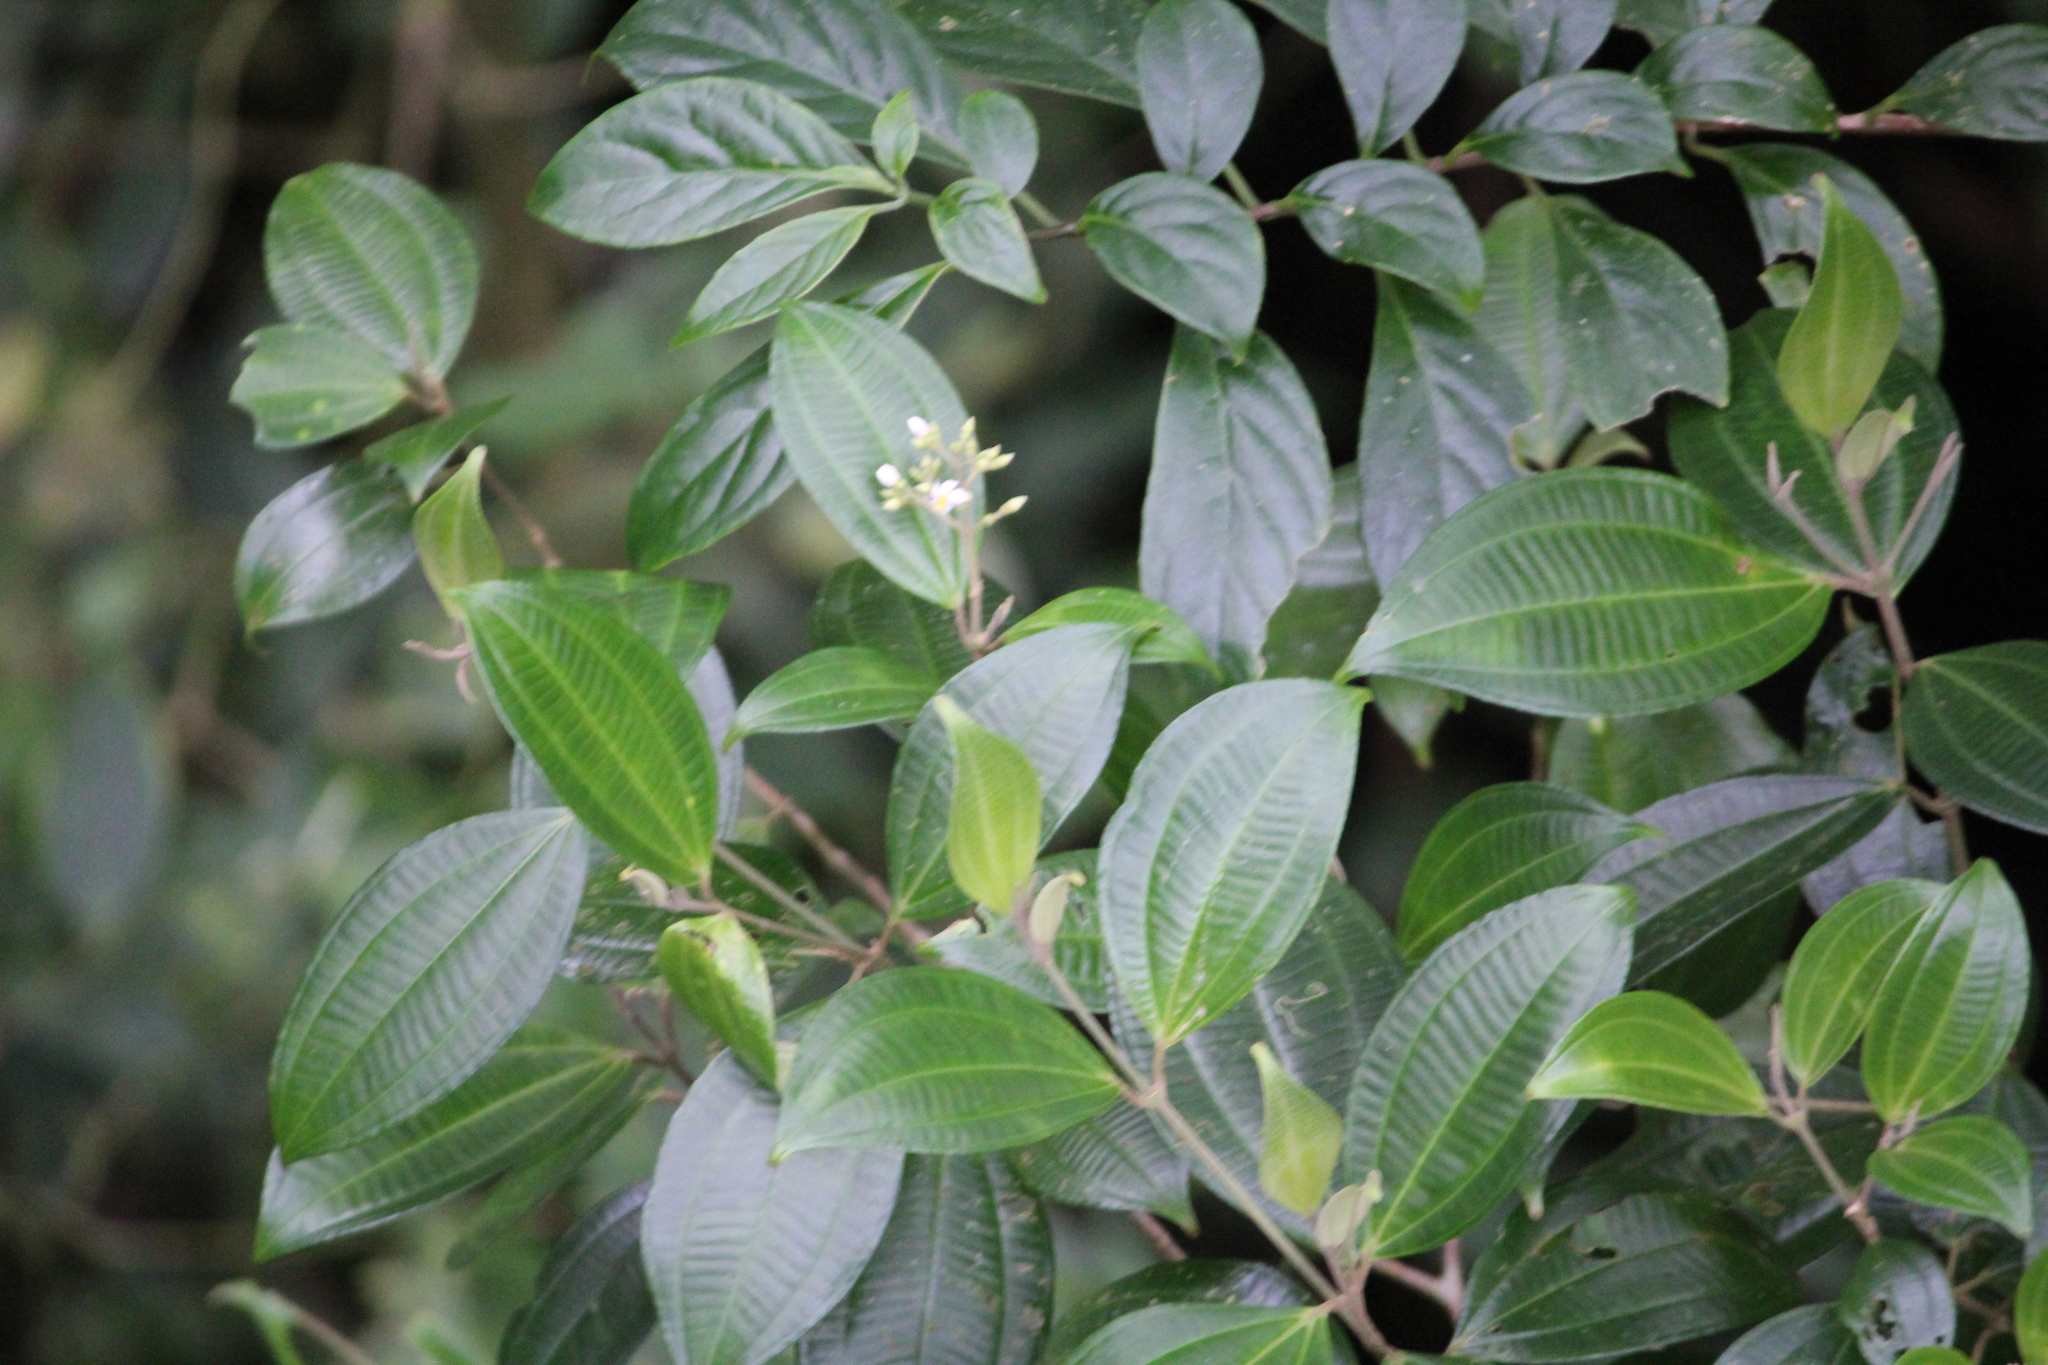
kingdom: Plantae
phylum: Tracheophyta
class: Magnoliopsida
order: Myrtales
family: Melastomataceae
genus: Miconia
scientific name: Miconia cooperi
